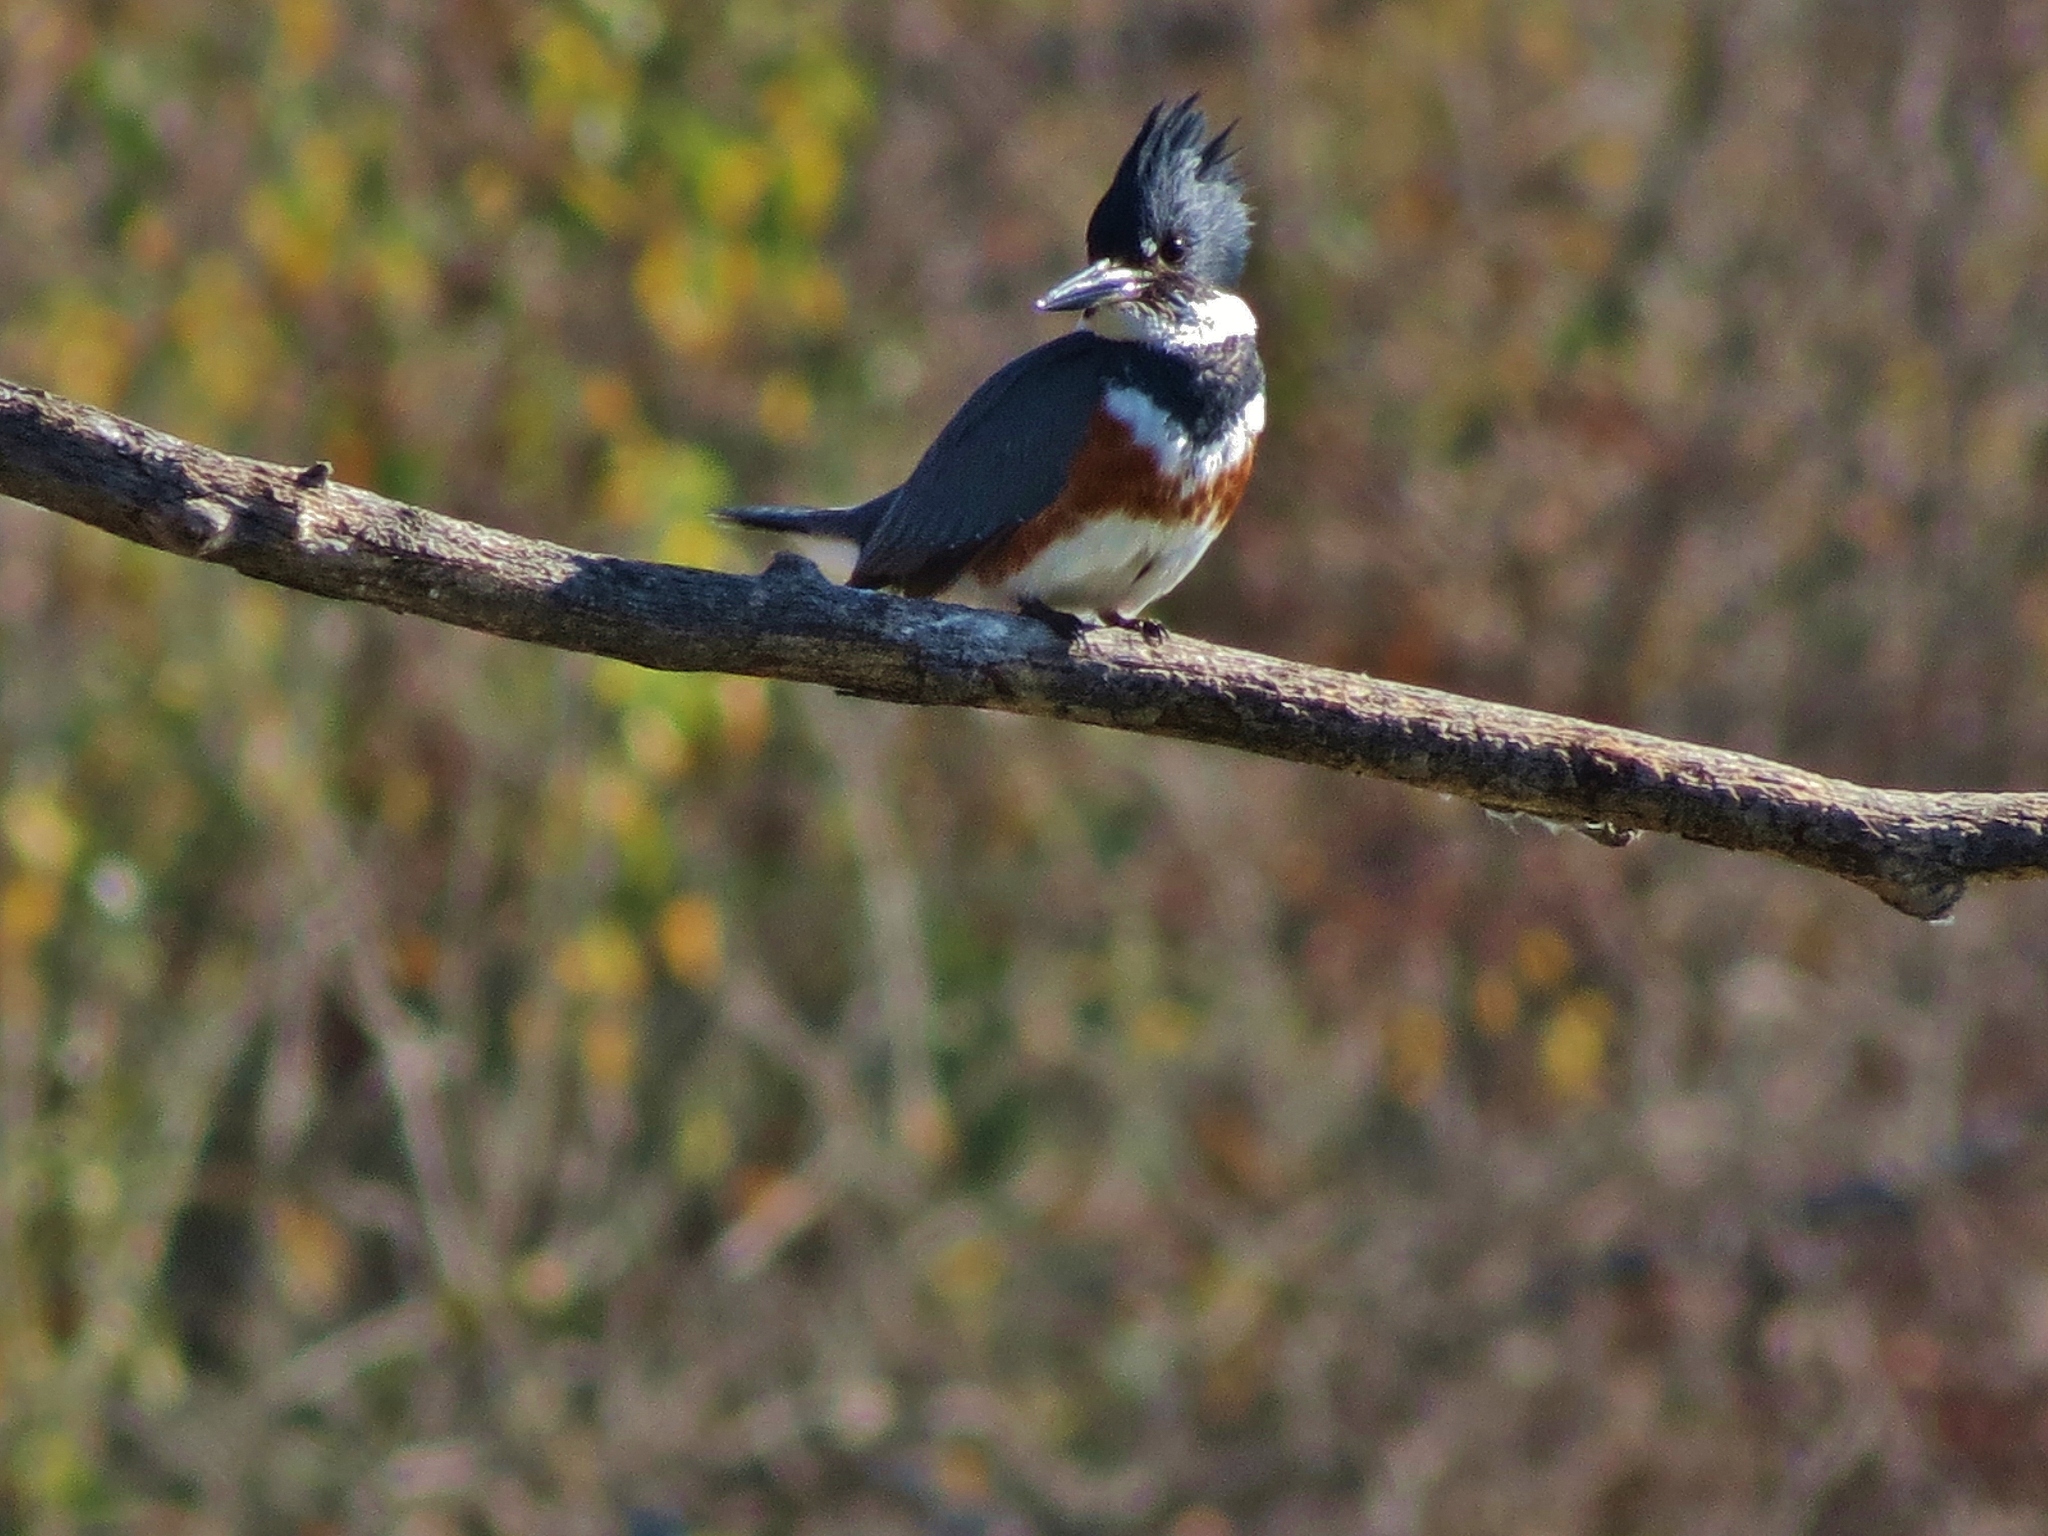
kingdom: Animalia
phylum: Chordata
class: Aves
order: Coraciiformes
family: Alcedinidae
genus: Megaceryle
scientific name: Megaceryle alcyon
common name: Belted kingfisher
